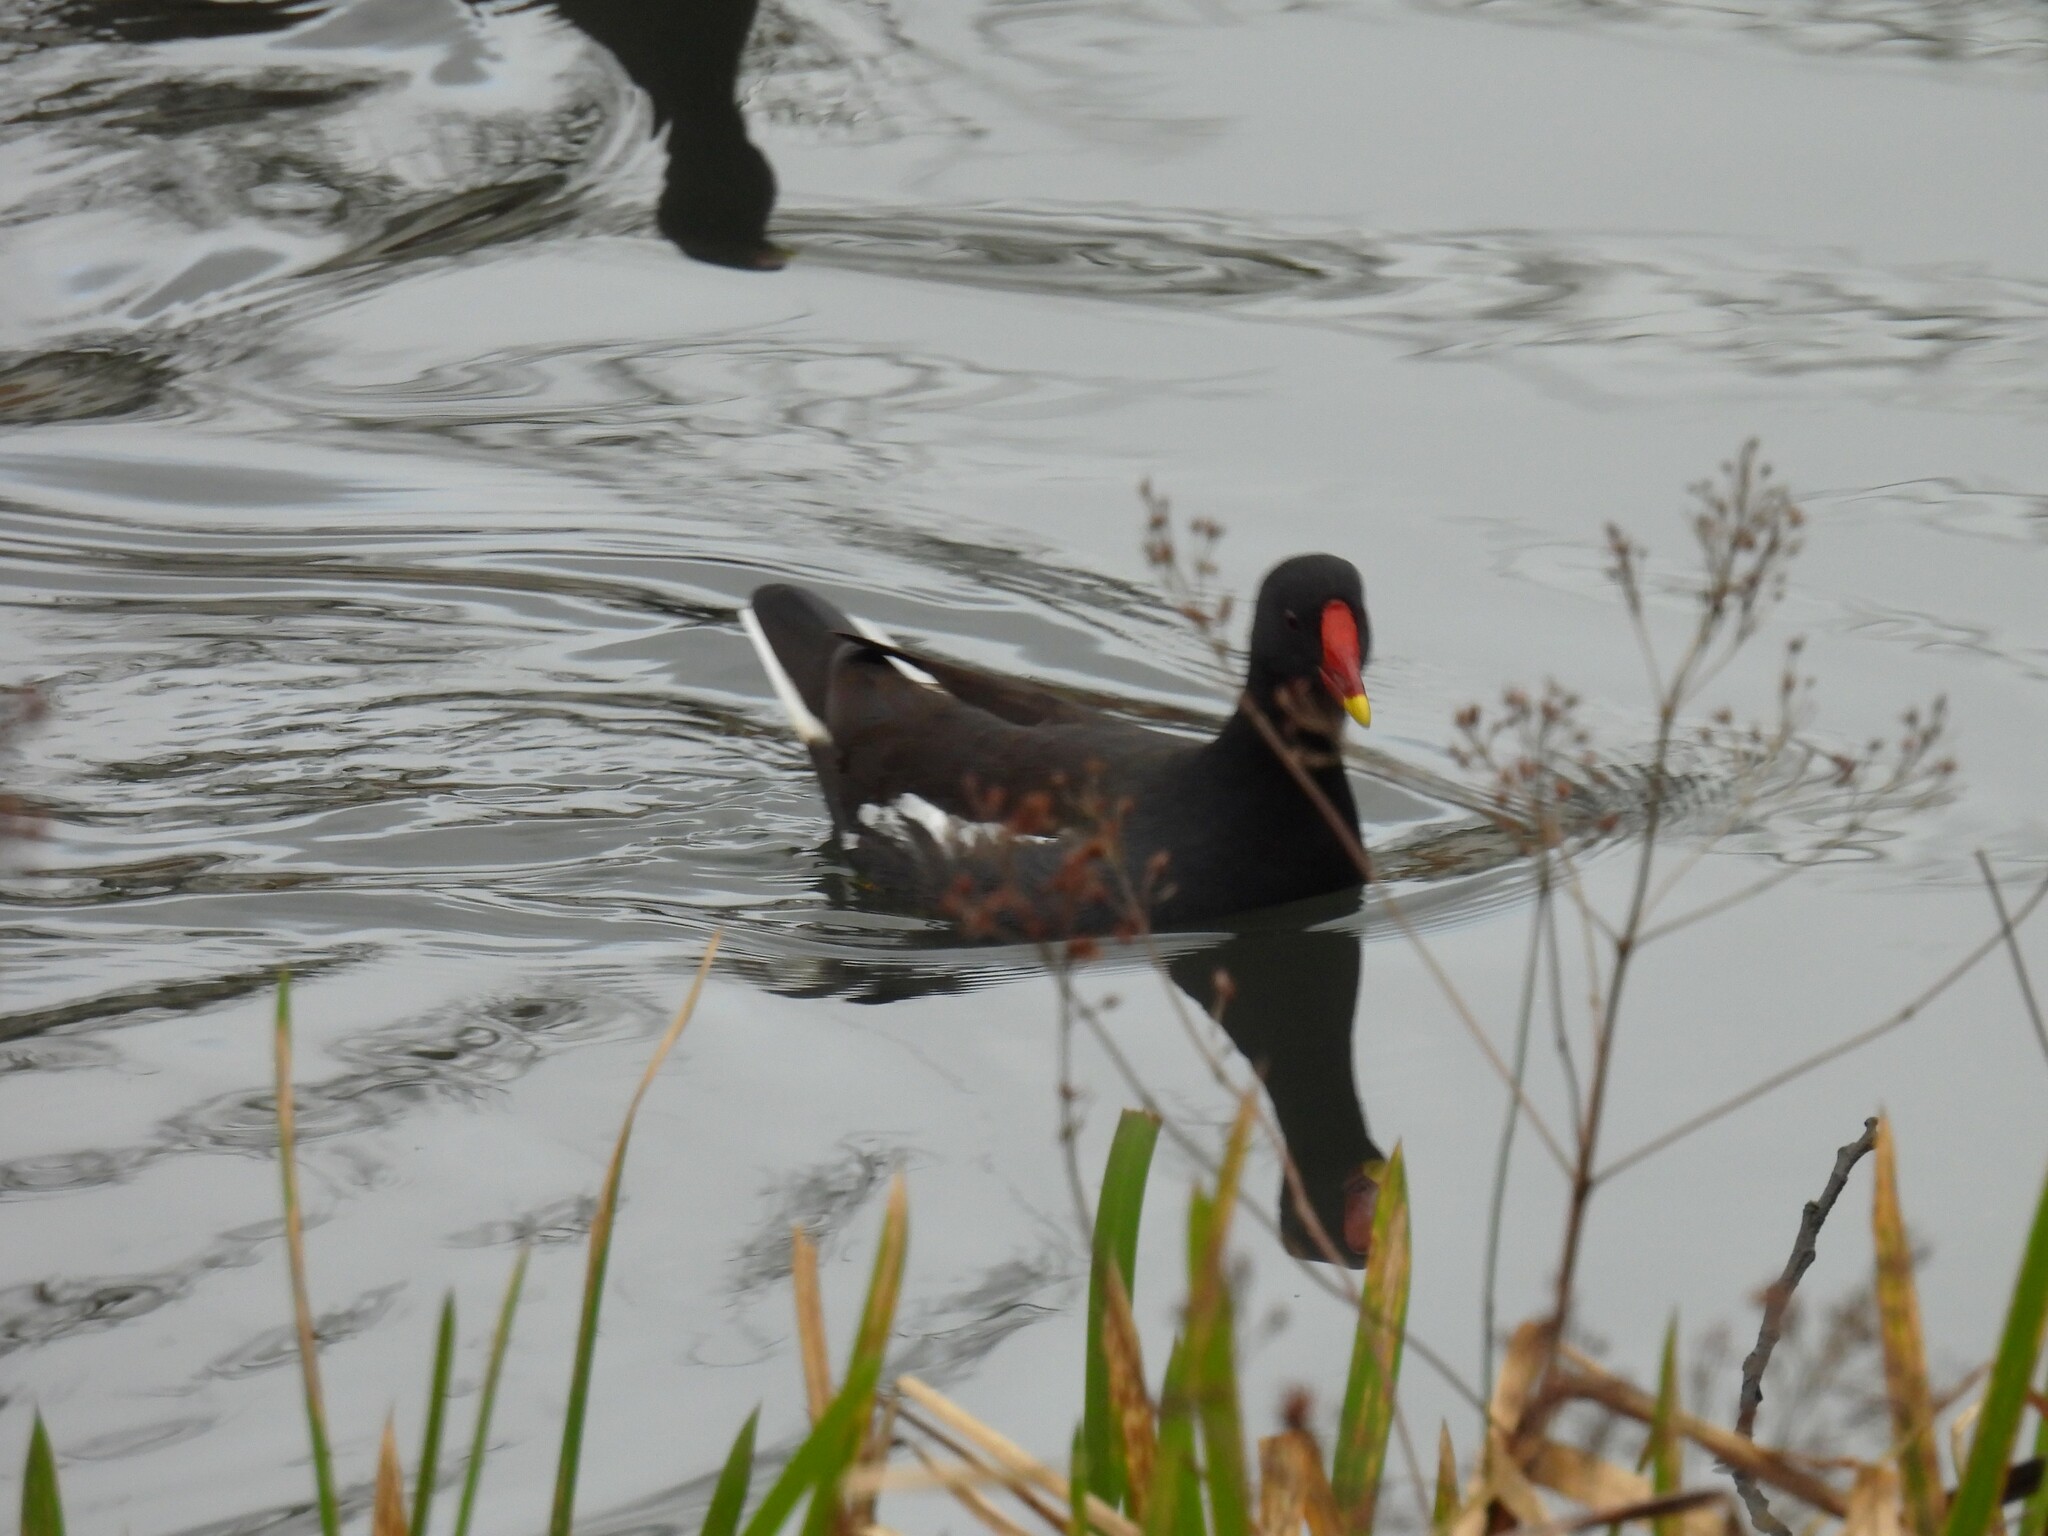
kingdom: Animalia
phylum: Chordata
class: Aves
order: Gruiformes
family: Rallidae
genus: Gallinula
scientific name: Gallinula chloropus
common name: Common moorhen
